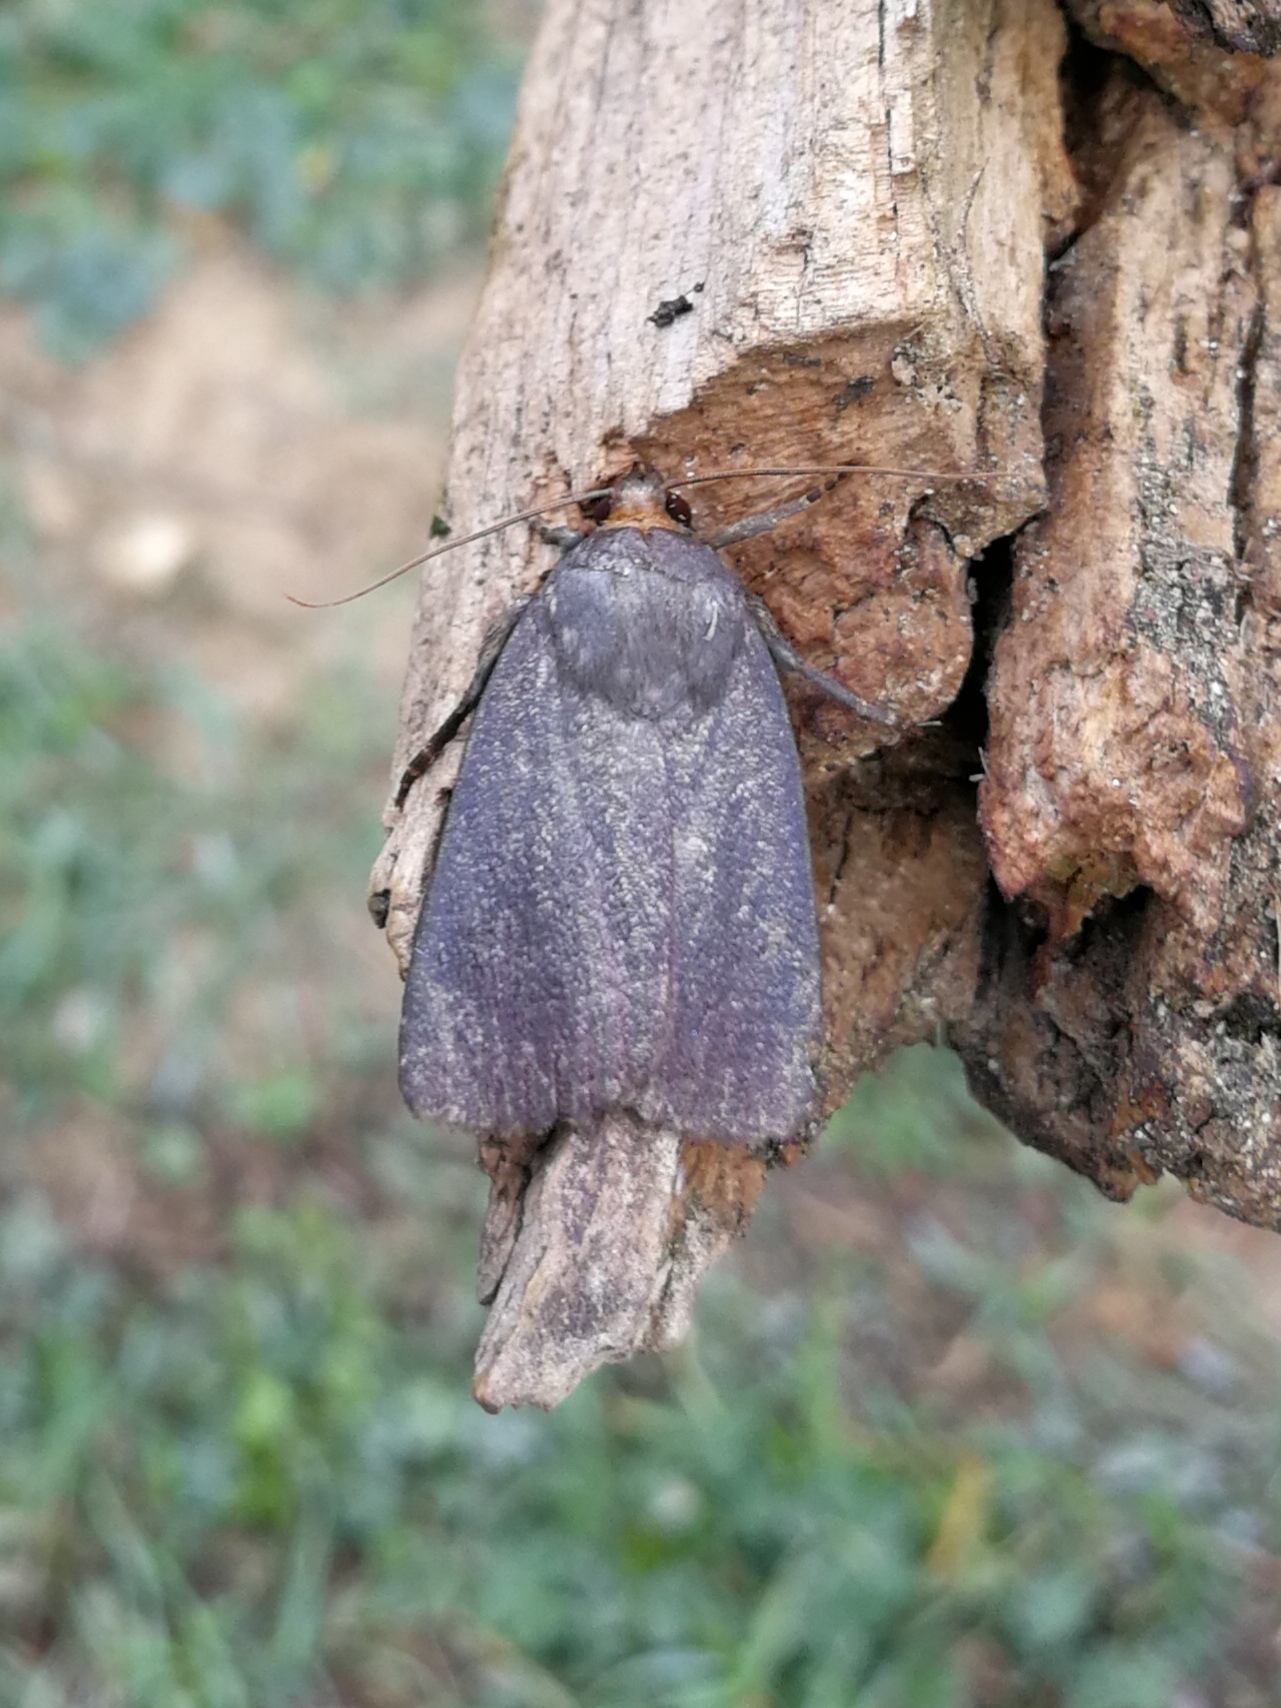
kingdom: Animalia
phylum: Arthropoda
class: Insecta
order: Lepidoptera
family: Noctuidae
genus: Amphipyra
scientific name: Amphipyra livida
